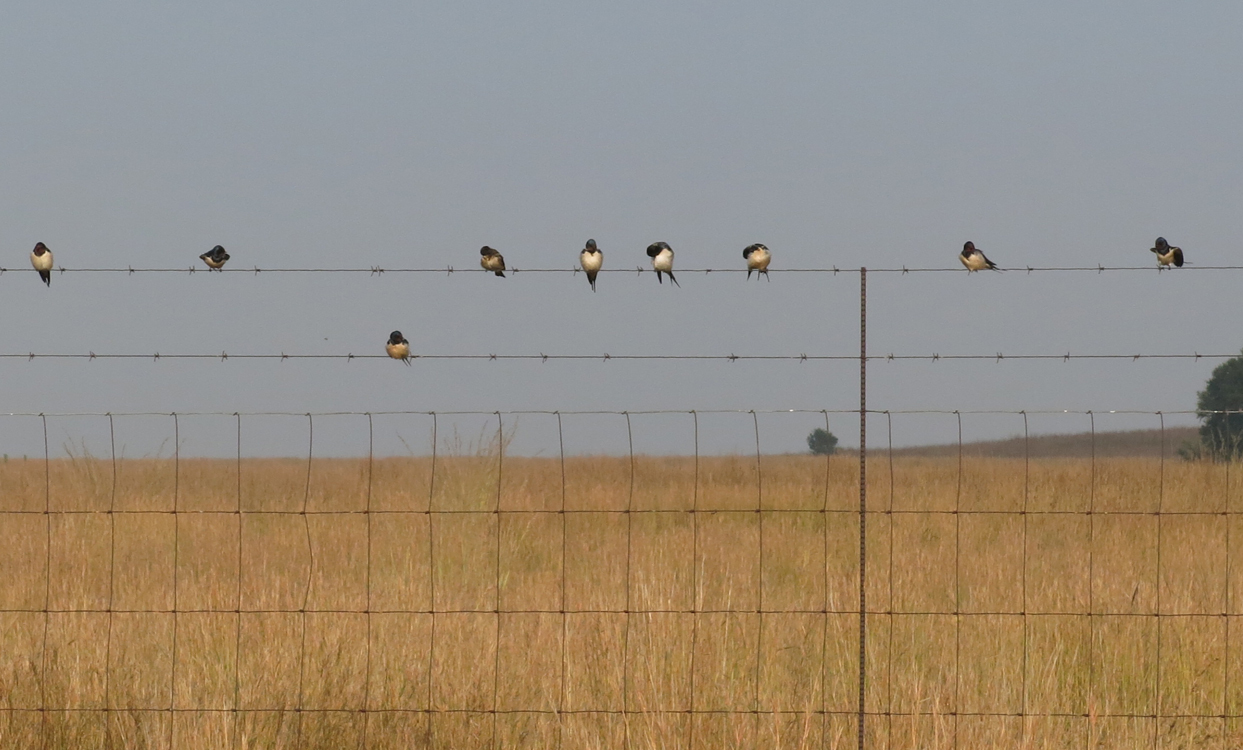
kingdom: Animalia
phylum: Chordata
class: Aves
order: Passeriformes
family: Hirundinidae
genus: Hirundo
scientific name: Hirundo rustica
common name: Barn swallow
